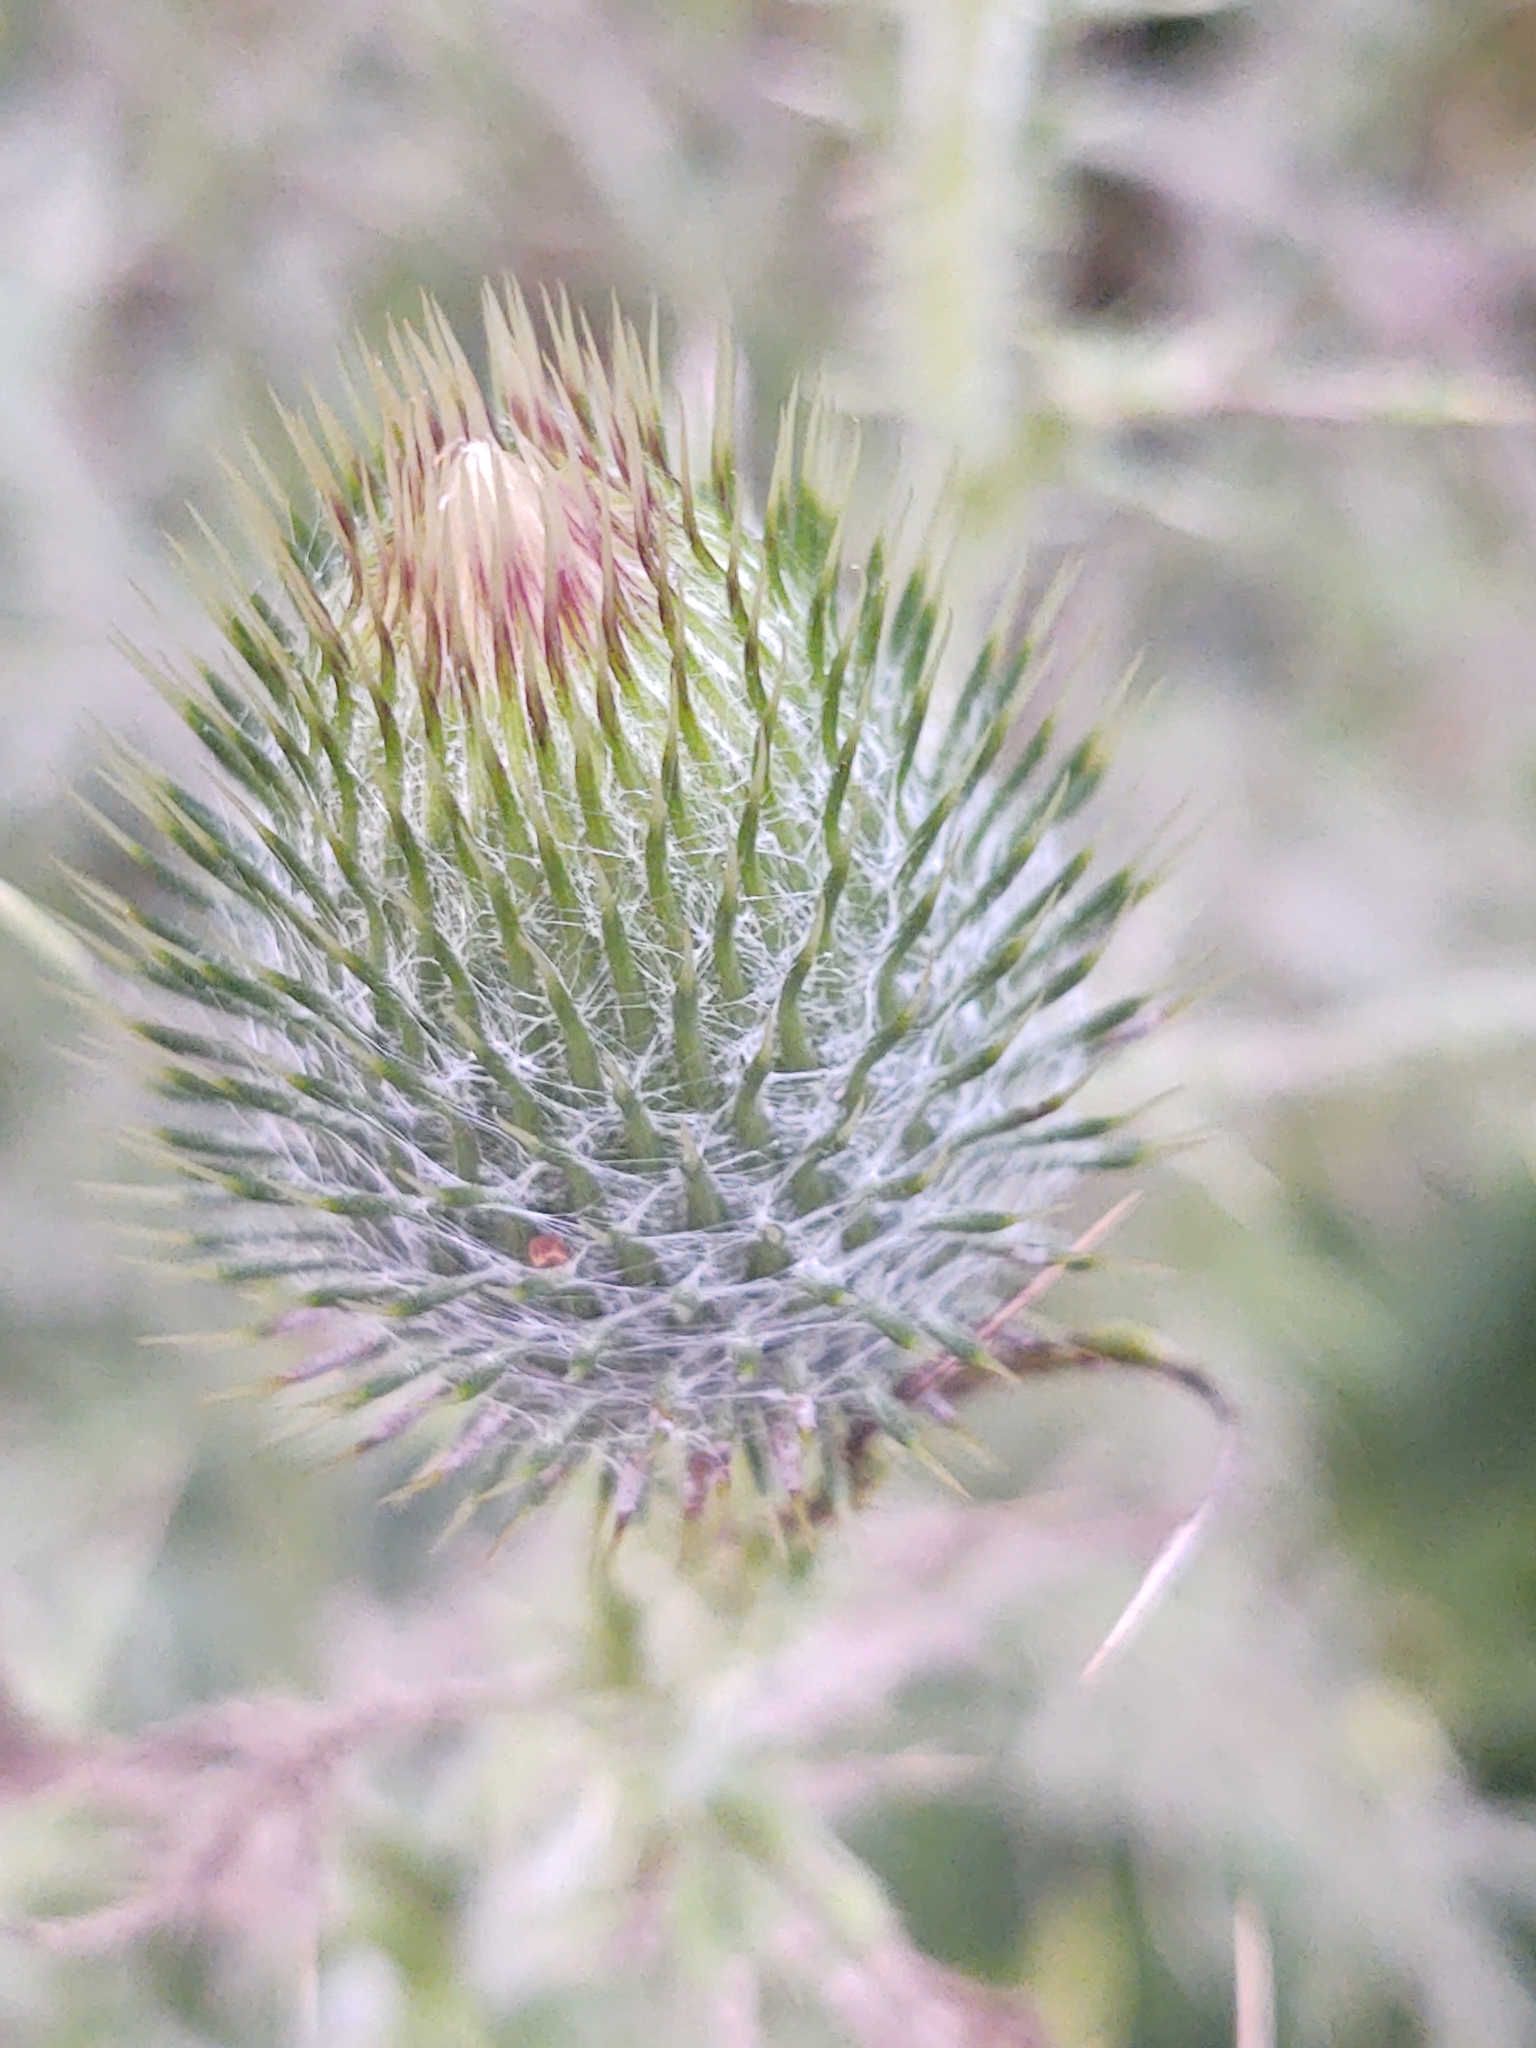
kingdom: Plantae
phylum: Tracheophyta
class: Magnoliopsida
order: Asterales
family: Asteraceae
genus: Cirsium
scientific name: Cirsium vulgare
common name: Bull thistle
